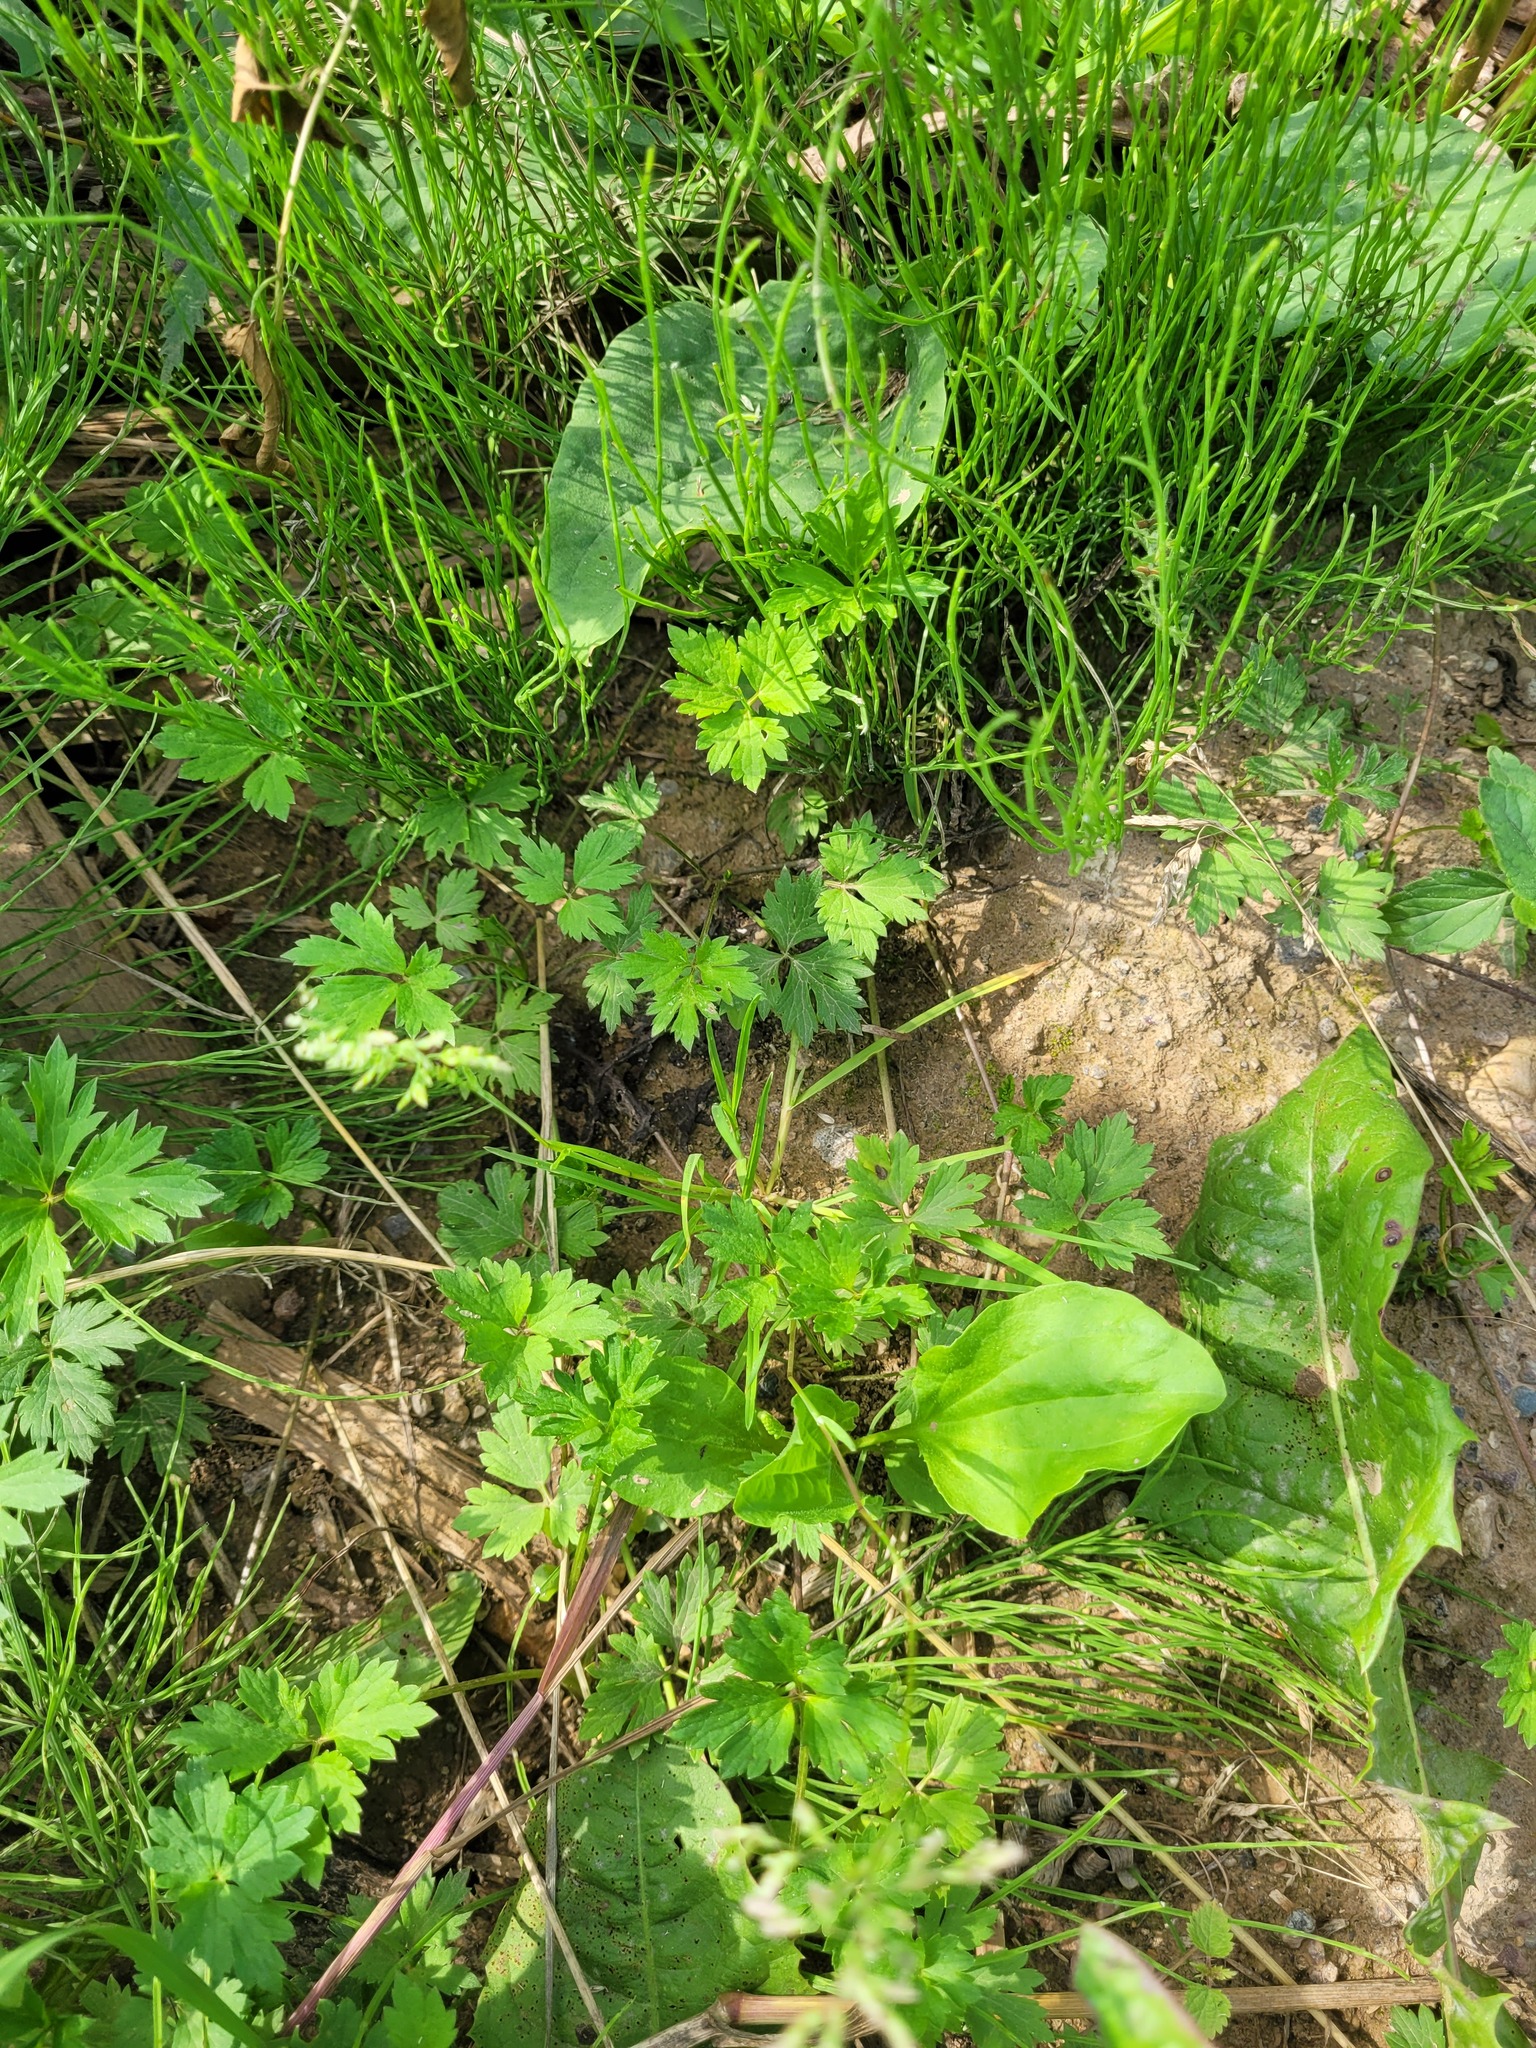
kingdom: Plantae
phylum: Tracheophyta
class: Liliopsida
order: Poales
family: Poaceae
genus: Poa
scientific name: Poa annua
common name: Annual bluegrass
